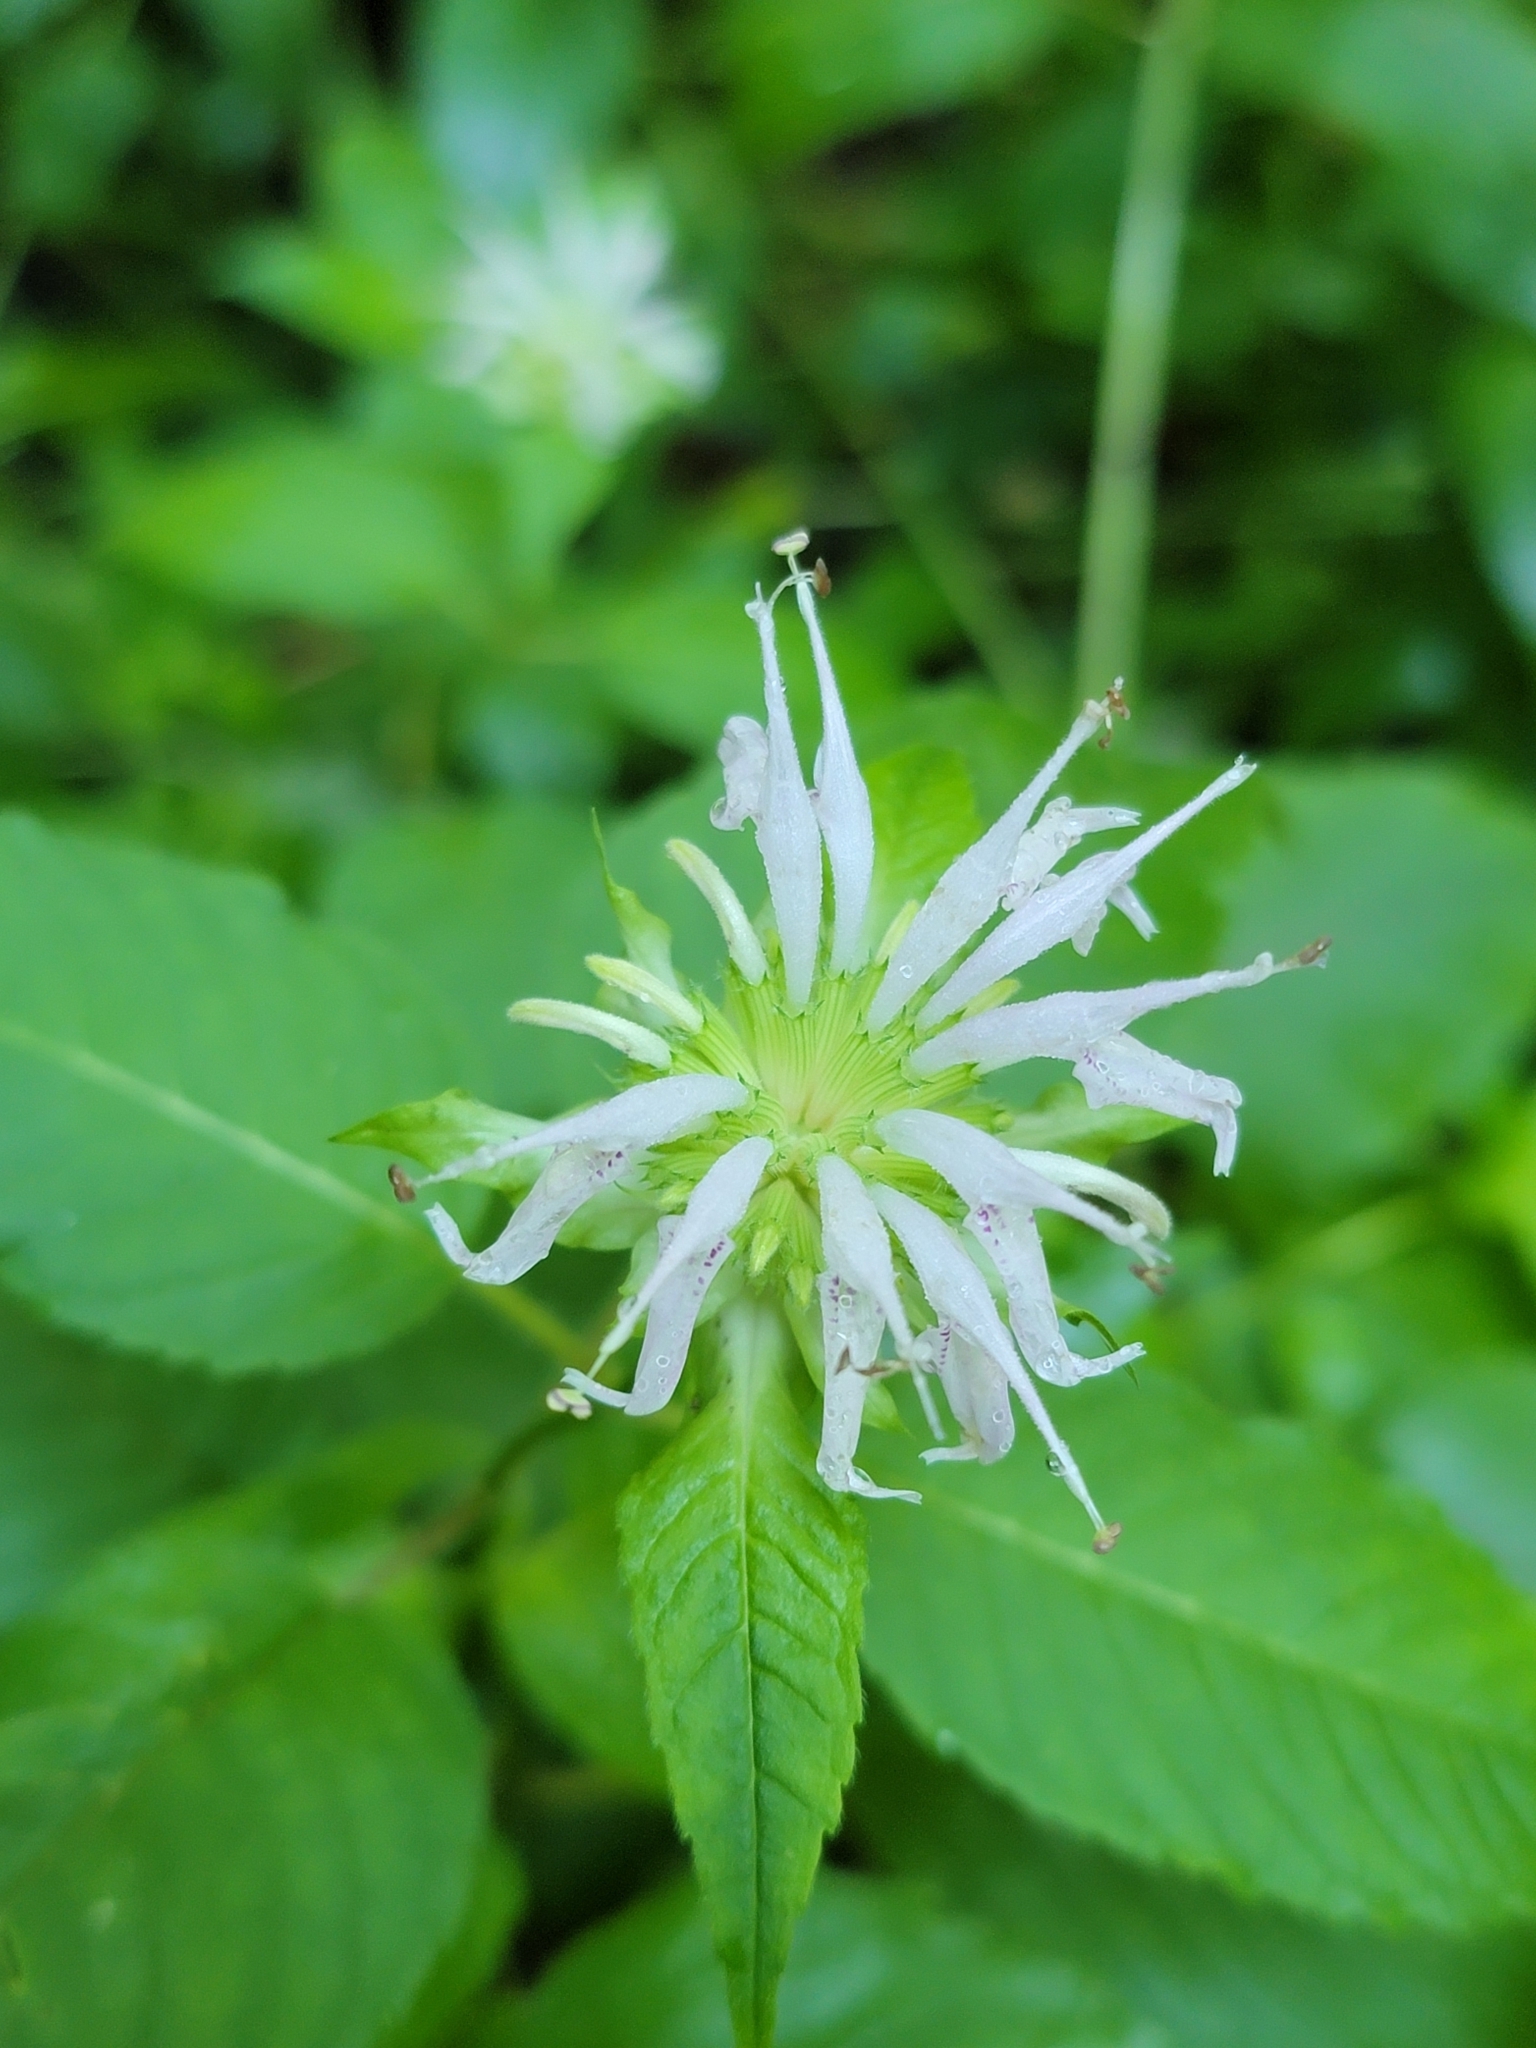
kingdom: Plantae
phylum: Tracheophyta
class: Magnoliopsida
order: Lamiales
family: Lamiaceae
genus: Monarda
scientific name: Monarda clinopodia
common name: Basil beebalm
